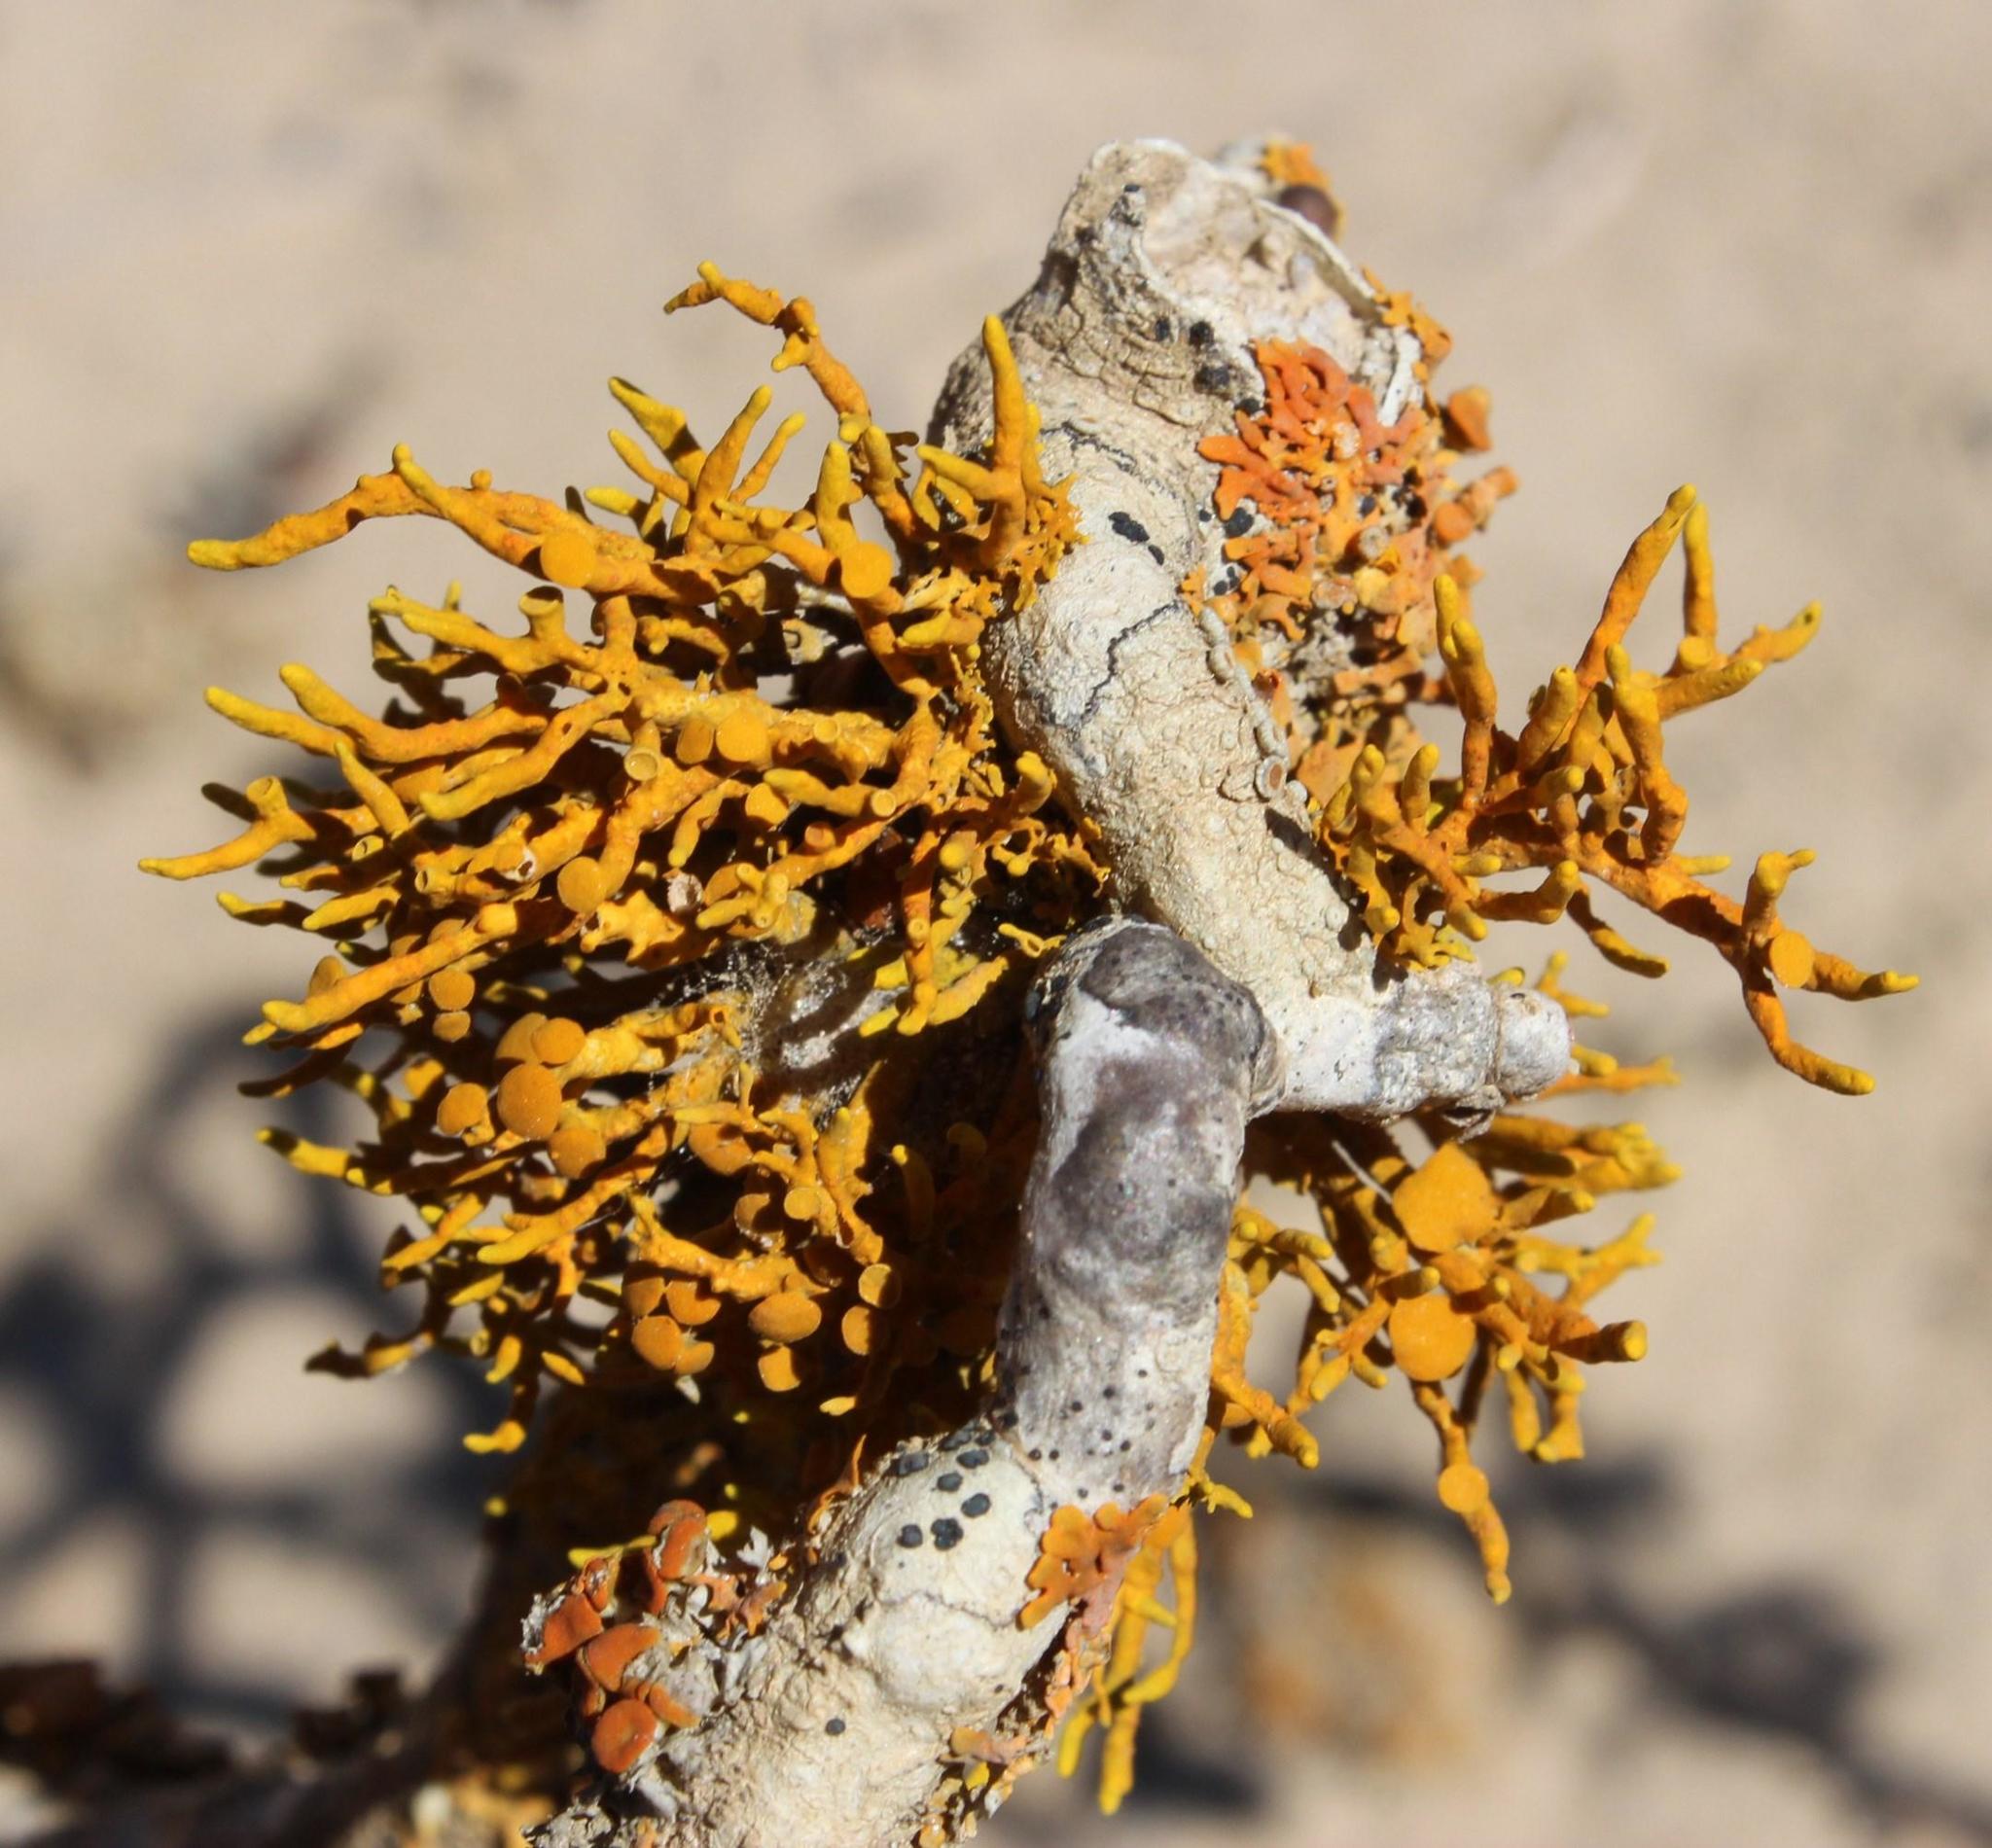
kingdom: Fungi
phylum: Ascomycota
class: Lecanoromycetes
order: Teloschistales
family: Teloschistaceae
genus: Dufourea
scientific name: Dufourea flammea
